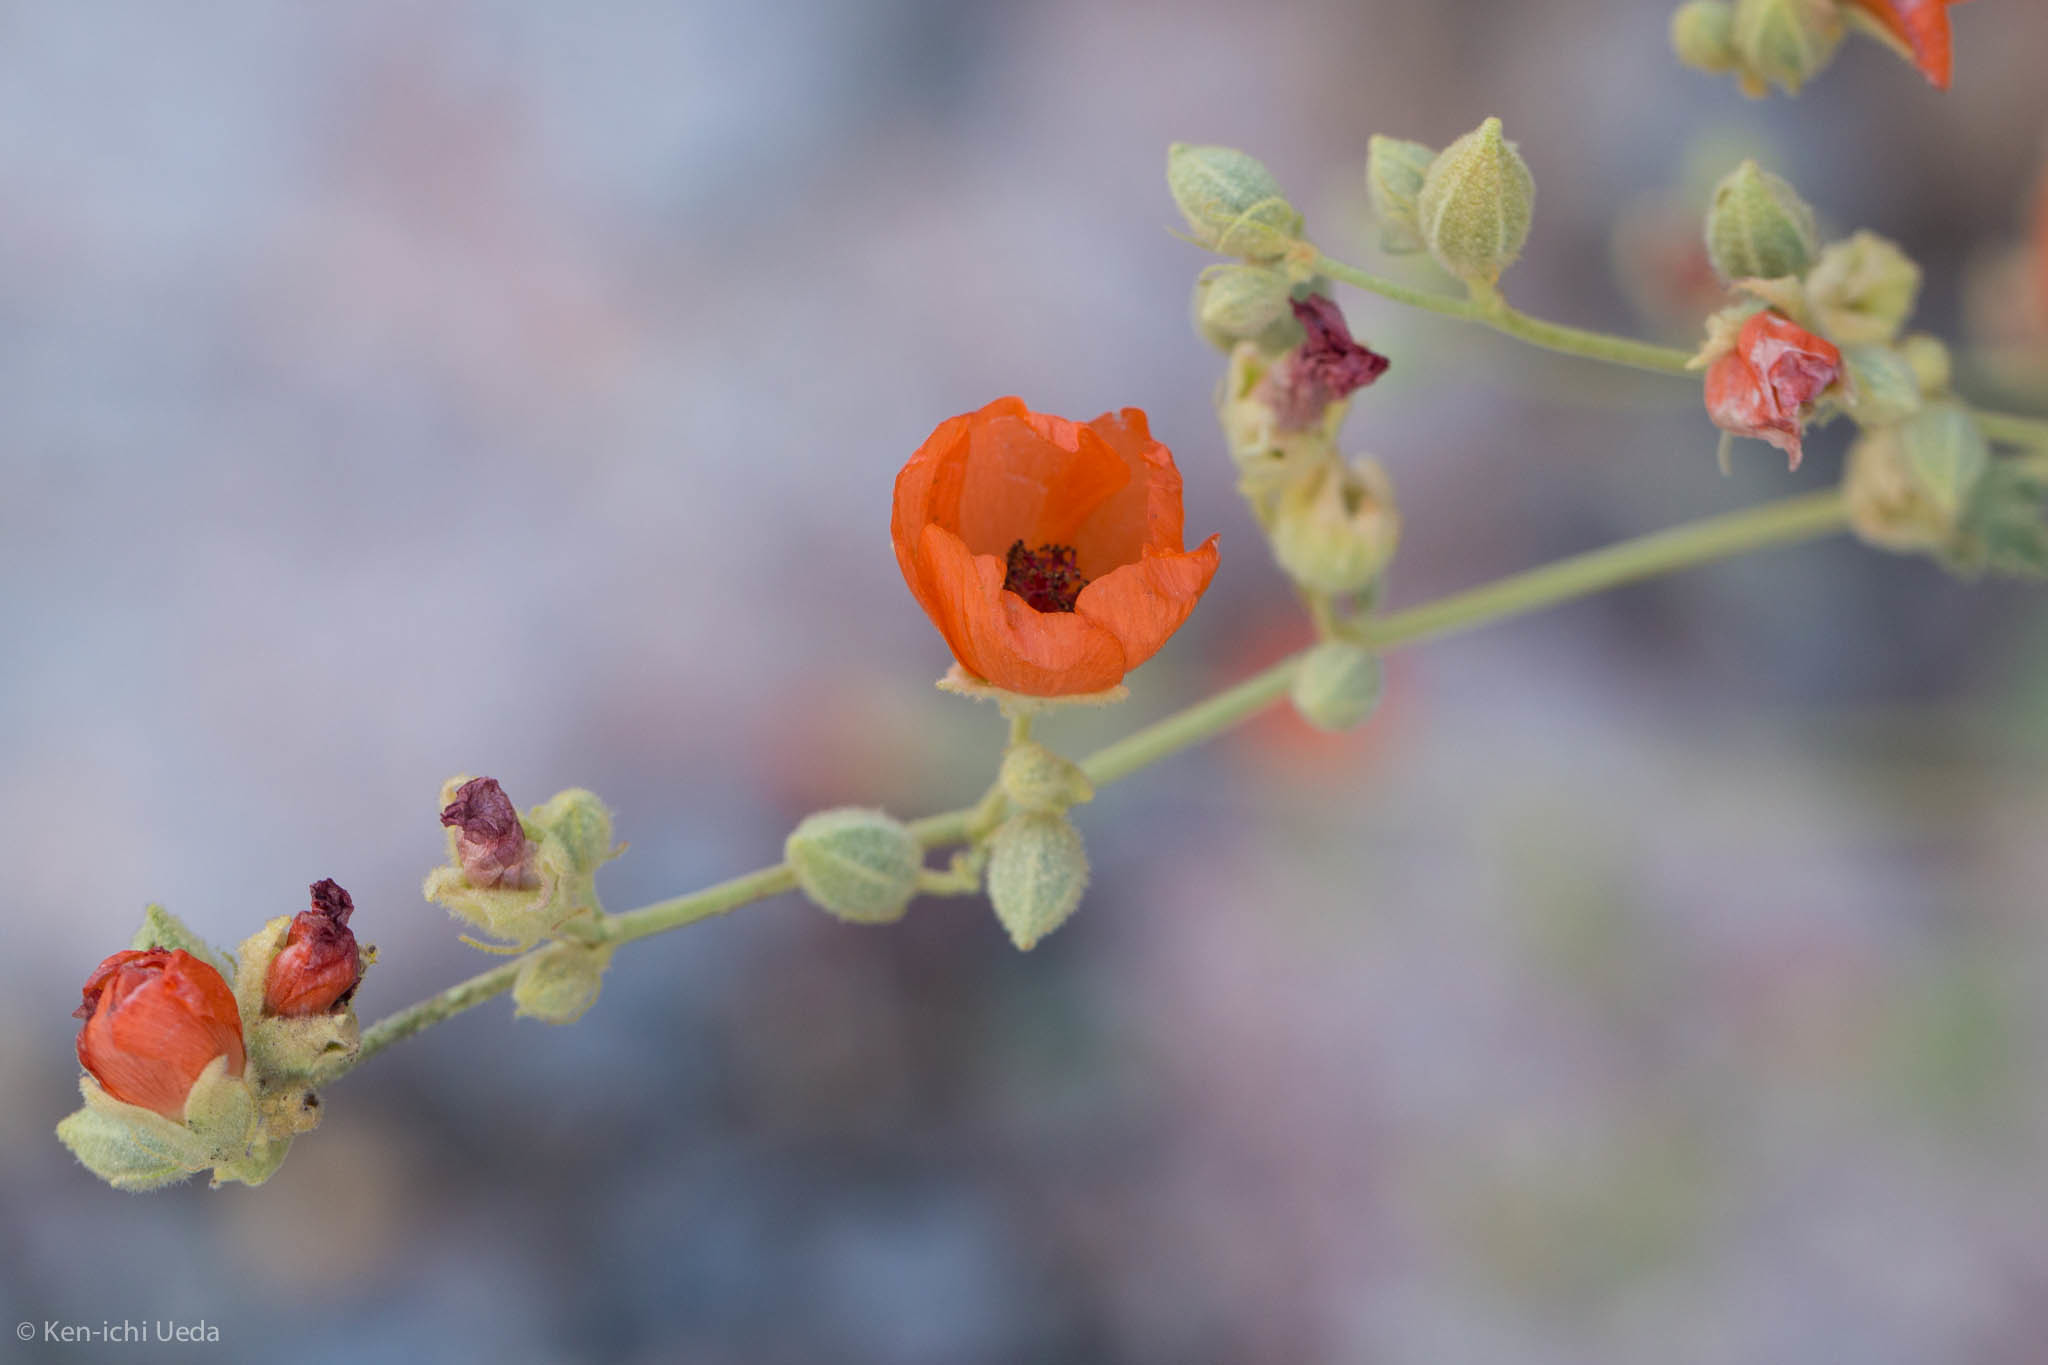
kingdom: Plantae
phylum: Tracheophyta
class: Magnoliopsida
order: Malvales
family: Malvaceae
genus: Sphaeralcea
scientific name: Sphaeralcea ambigua
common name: Apricot globe-mallow
